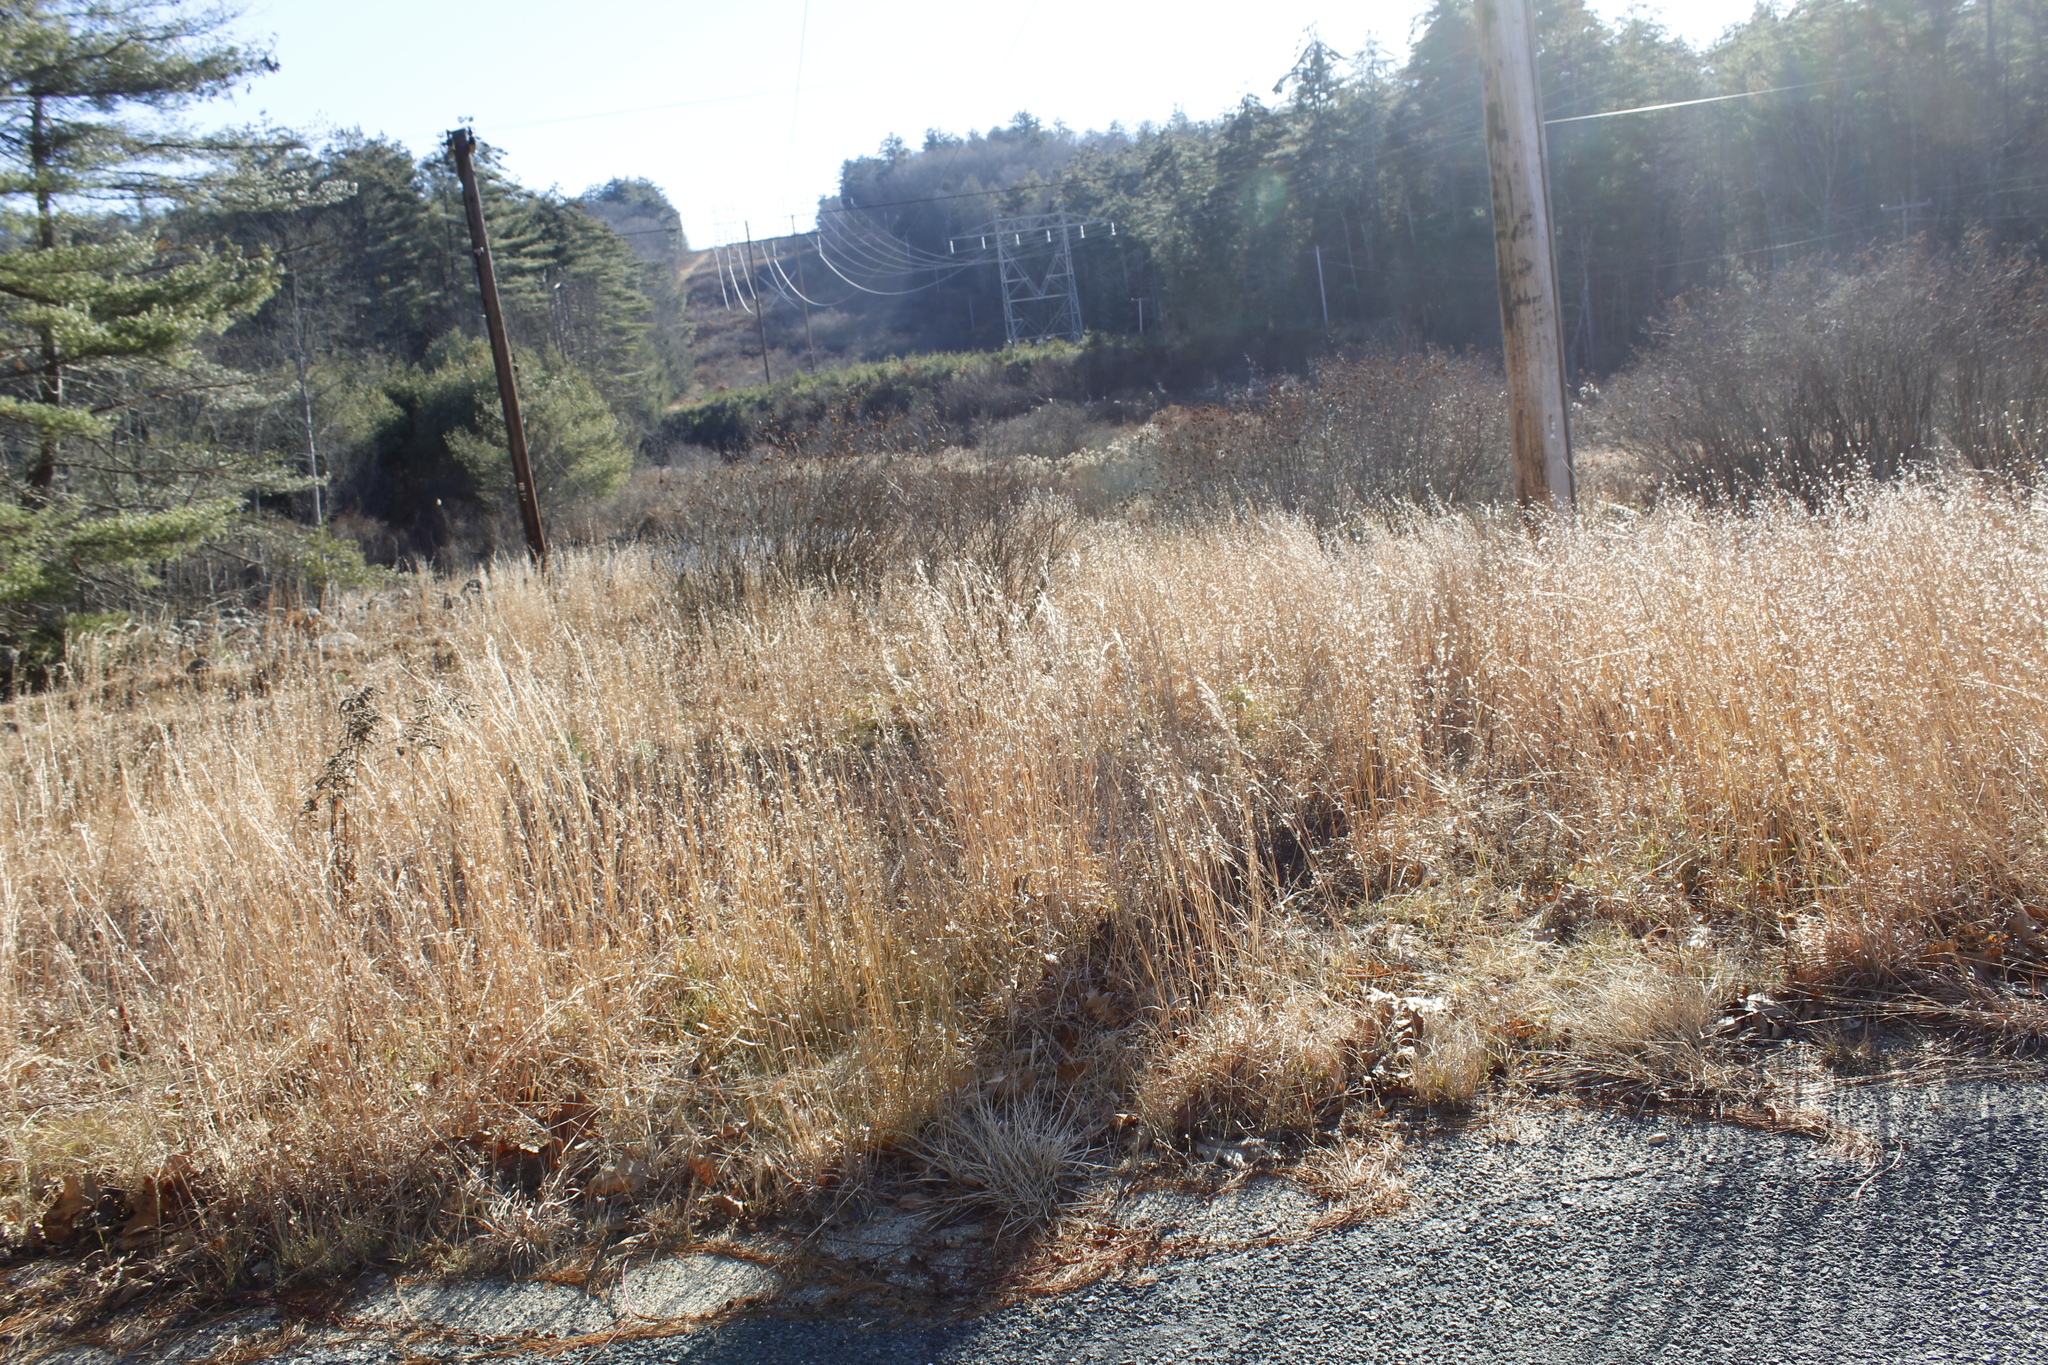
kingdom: Plantae
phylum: Tracheophyta
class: Liliopsida
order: Poales
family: Poaceae
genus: Schizachyrium
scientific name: Schizachyrium scoparium
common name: Little bluestem
